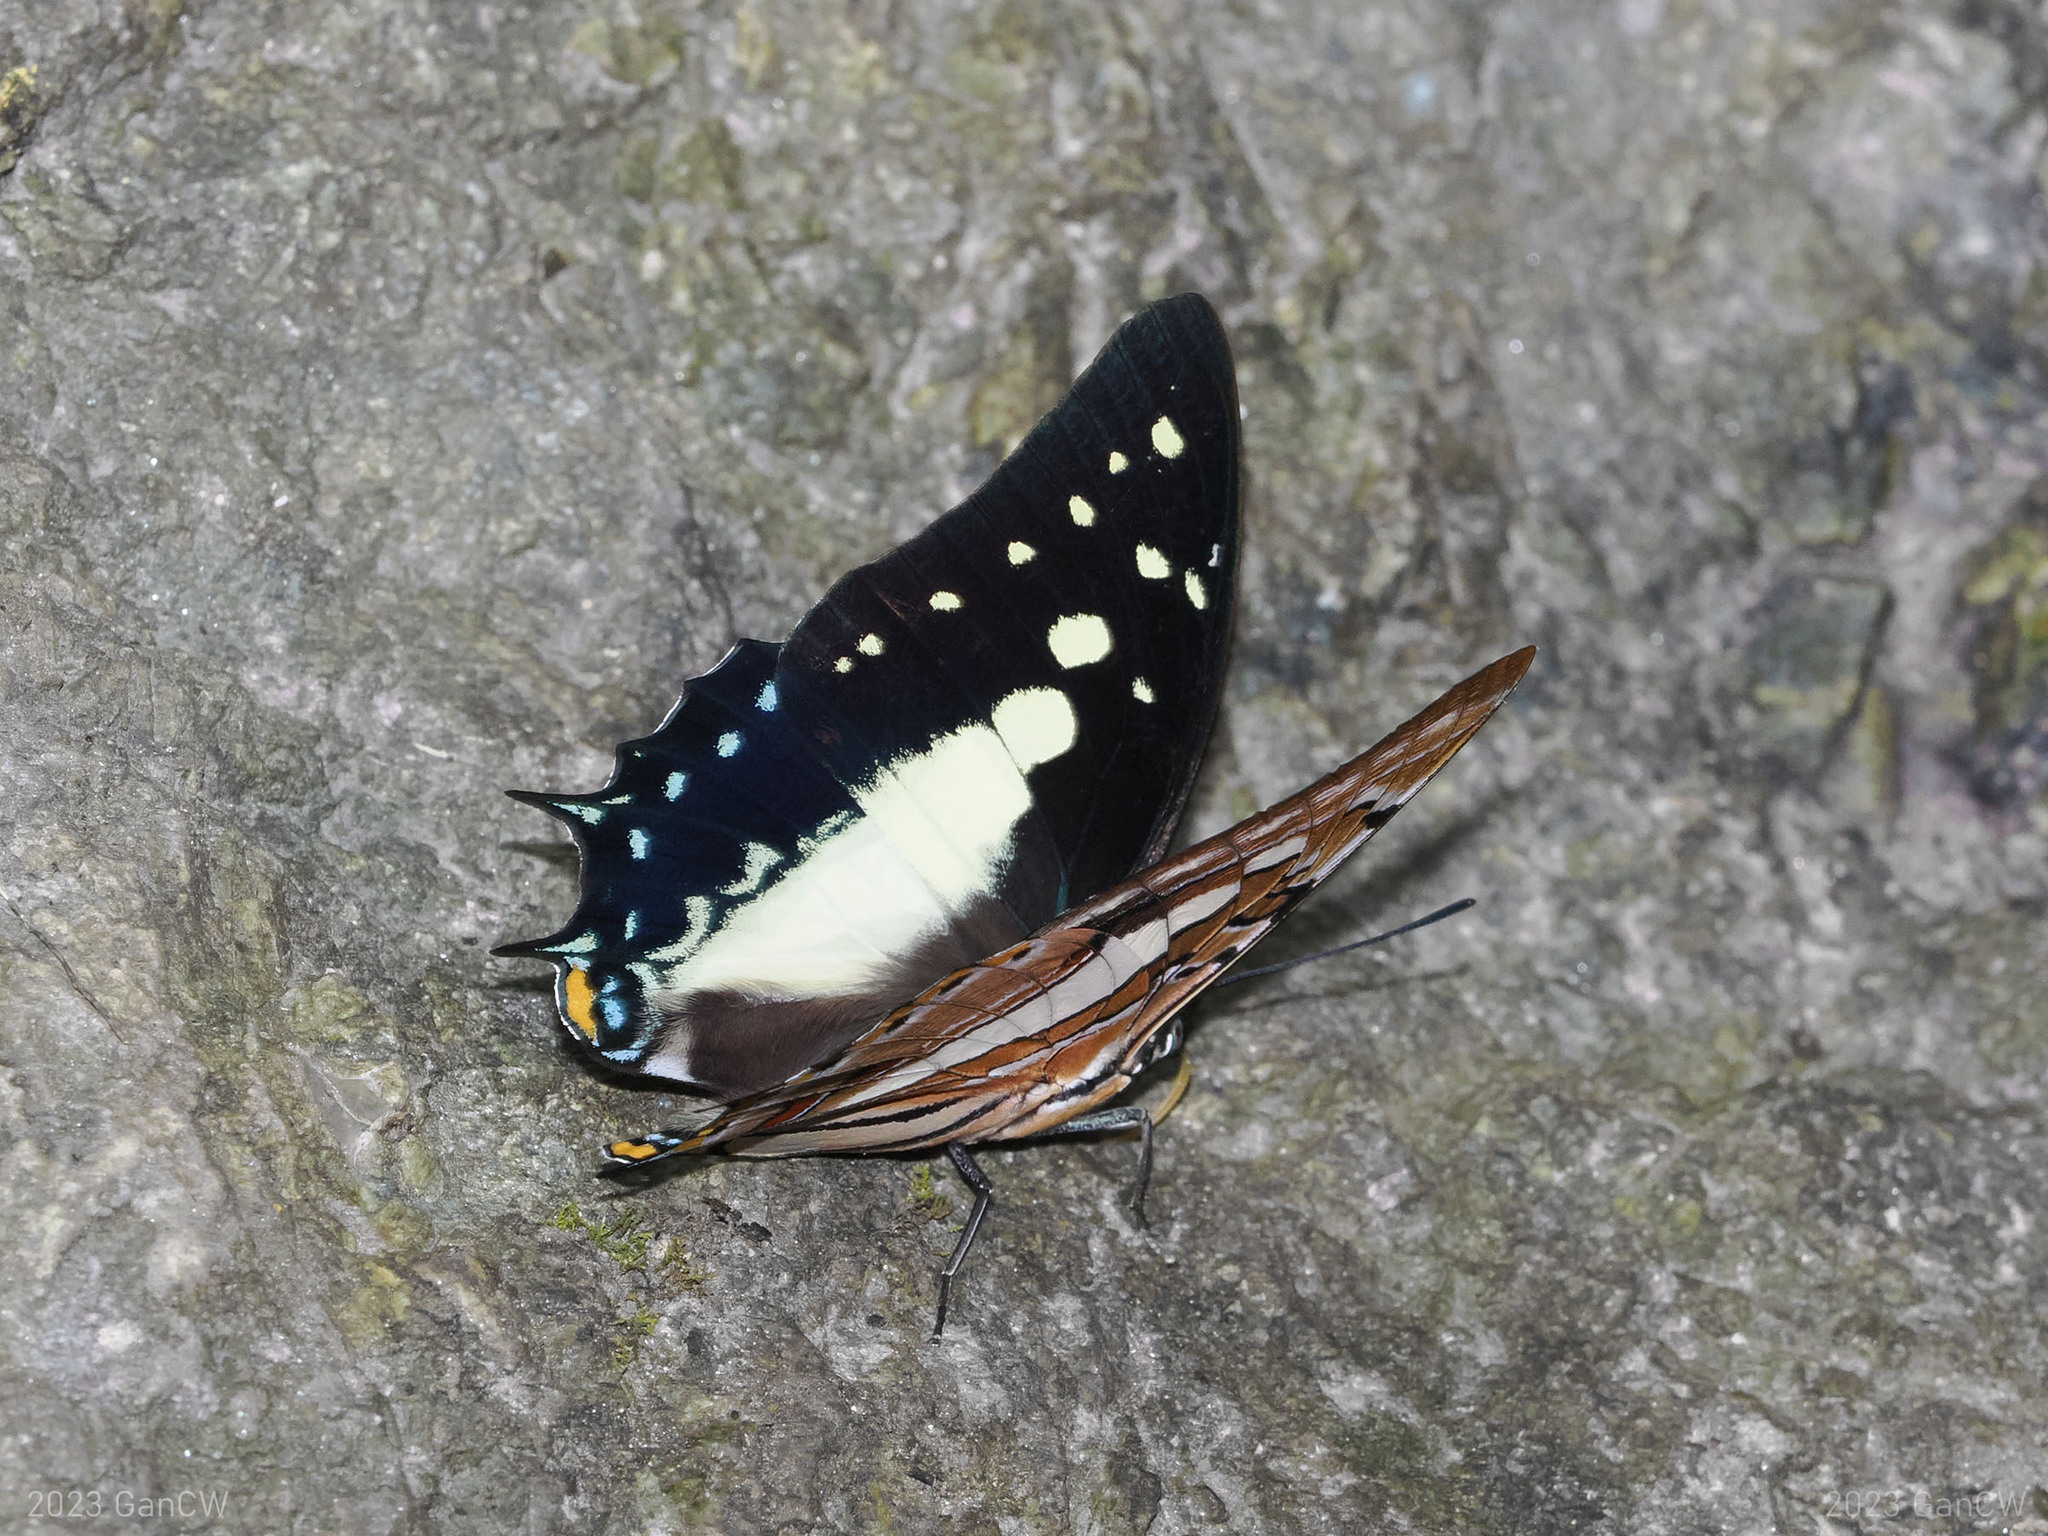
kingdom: Animalia
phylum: Arthropoda
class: Insecta
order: Lepidoptera
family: Nymphalidae
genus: Polyura
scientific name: Polyura jupiter
